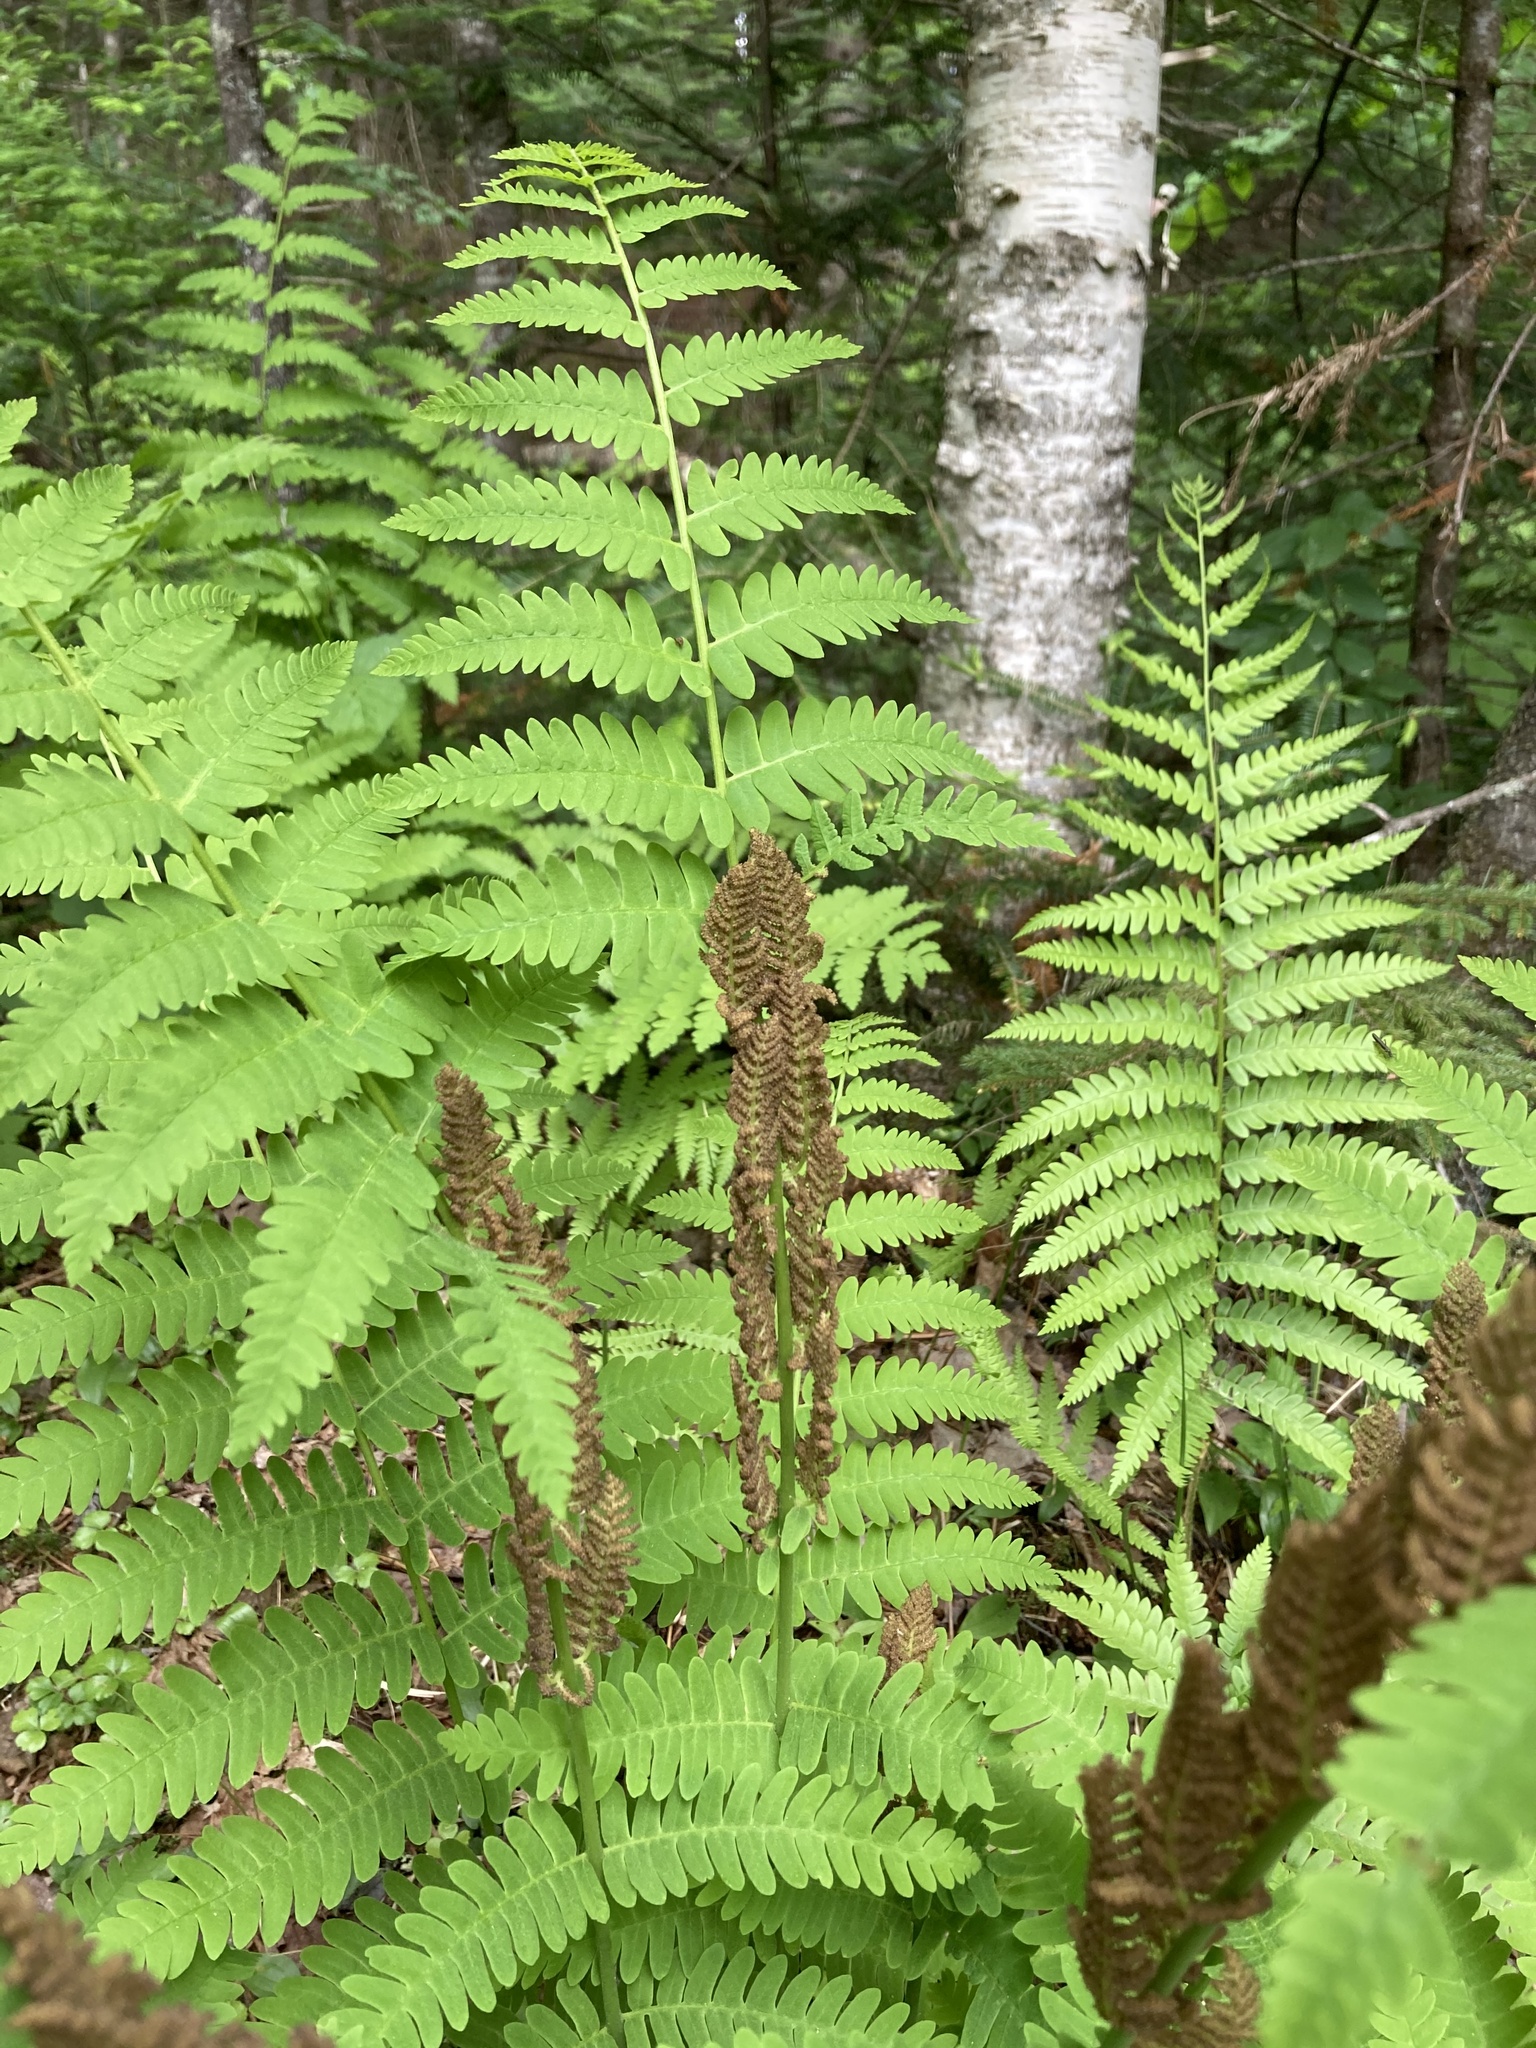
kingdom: Plantae
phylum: Tracheophyta
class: Polypodiopsida
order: Osmundales
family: Osmundaceae
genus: Claytosmunda
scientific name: Claytosmunda claytoniana
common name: Clayton's fern
